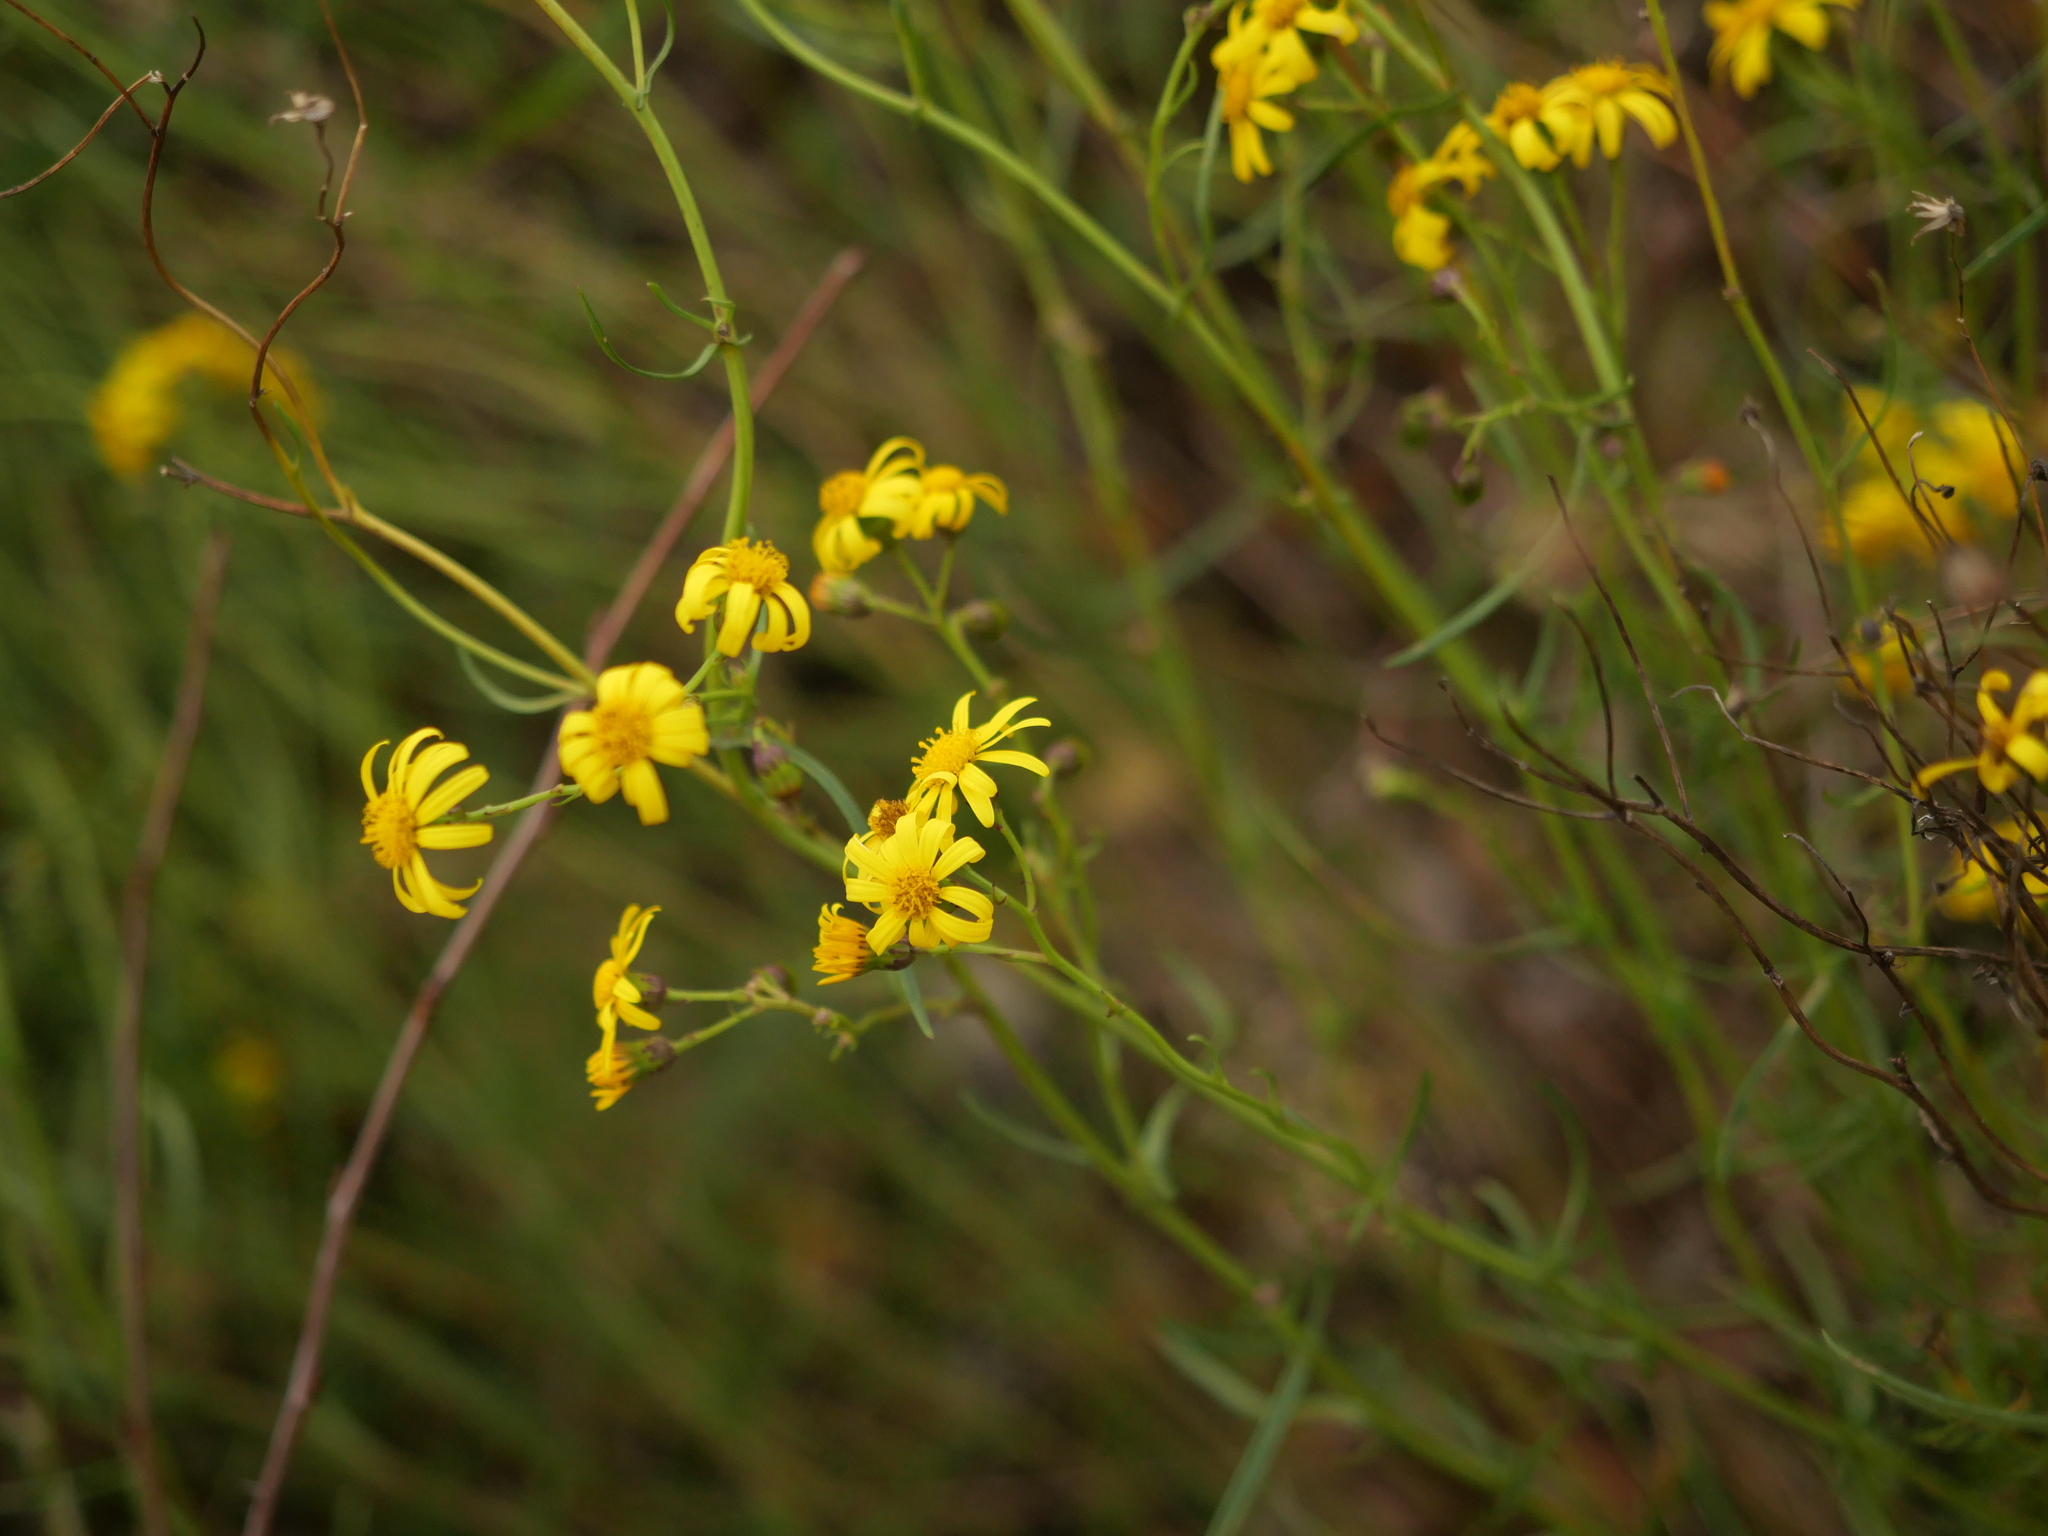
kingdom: Plantae
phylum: Tracheophyta
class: Magnoliopsida
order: Asterales
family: Asteraceae
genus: Senecio
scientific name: Senecio inaequidens
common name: Narrow-leaved ragwort
